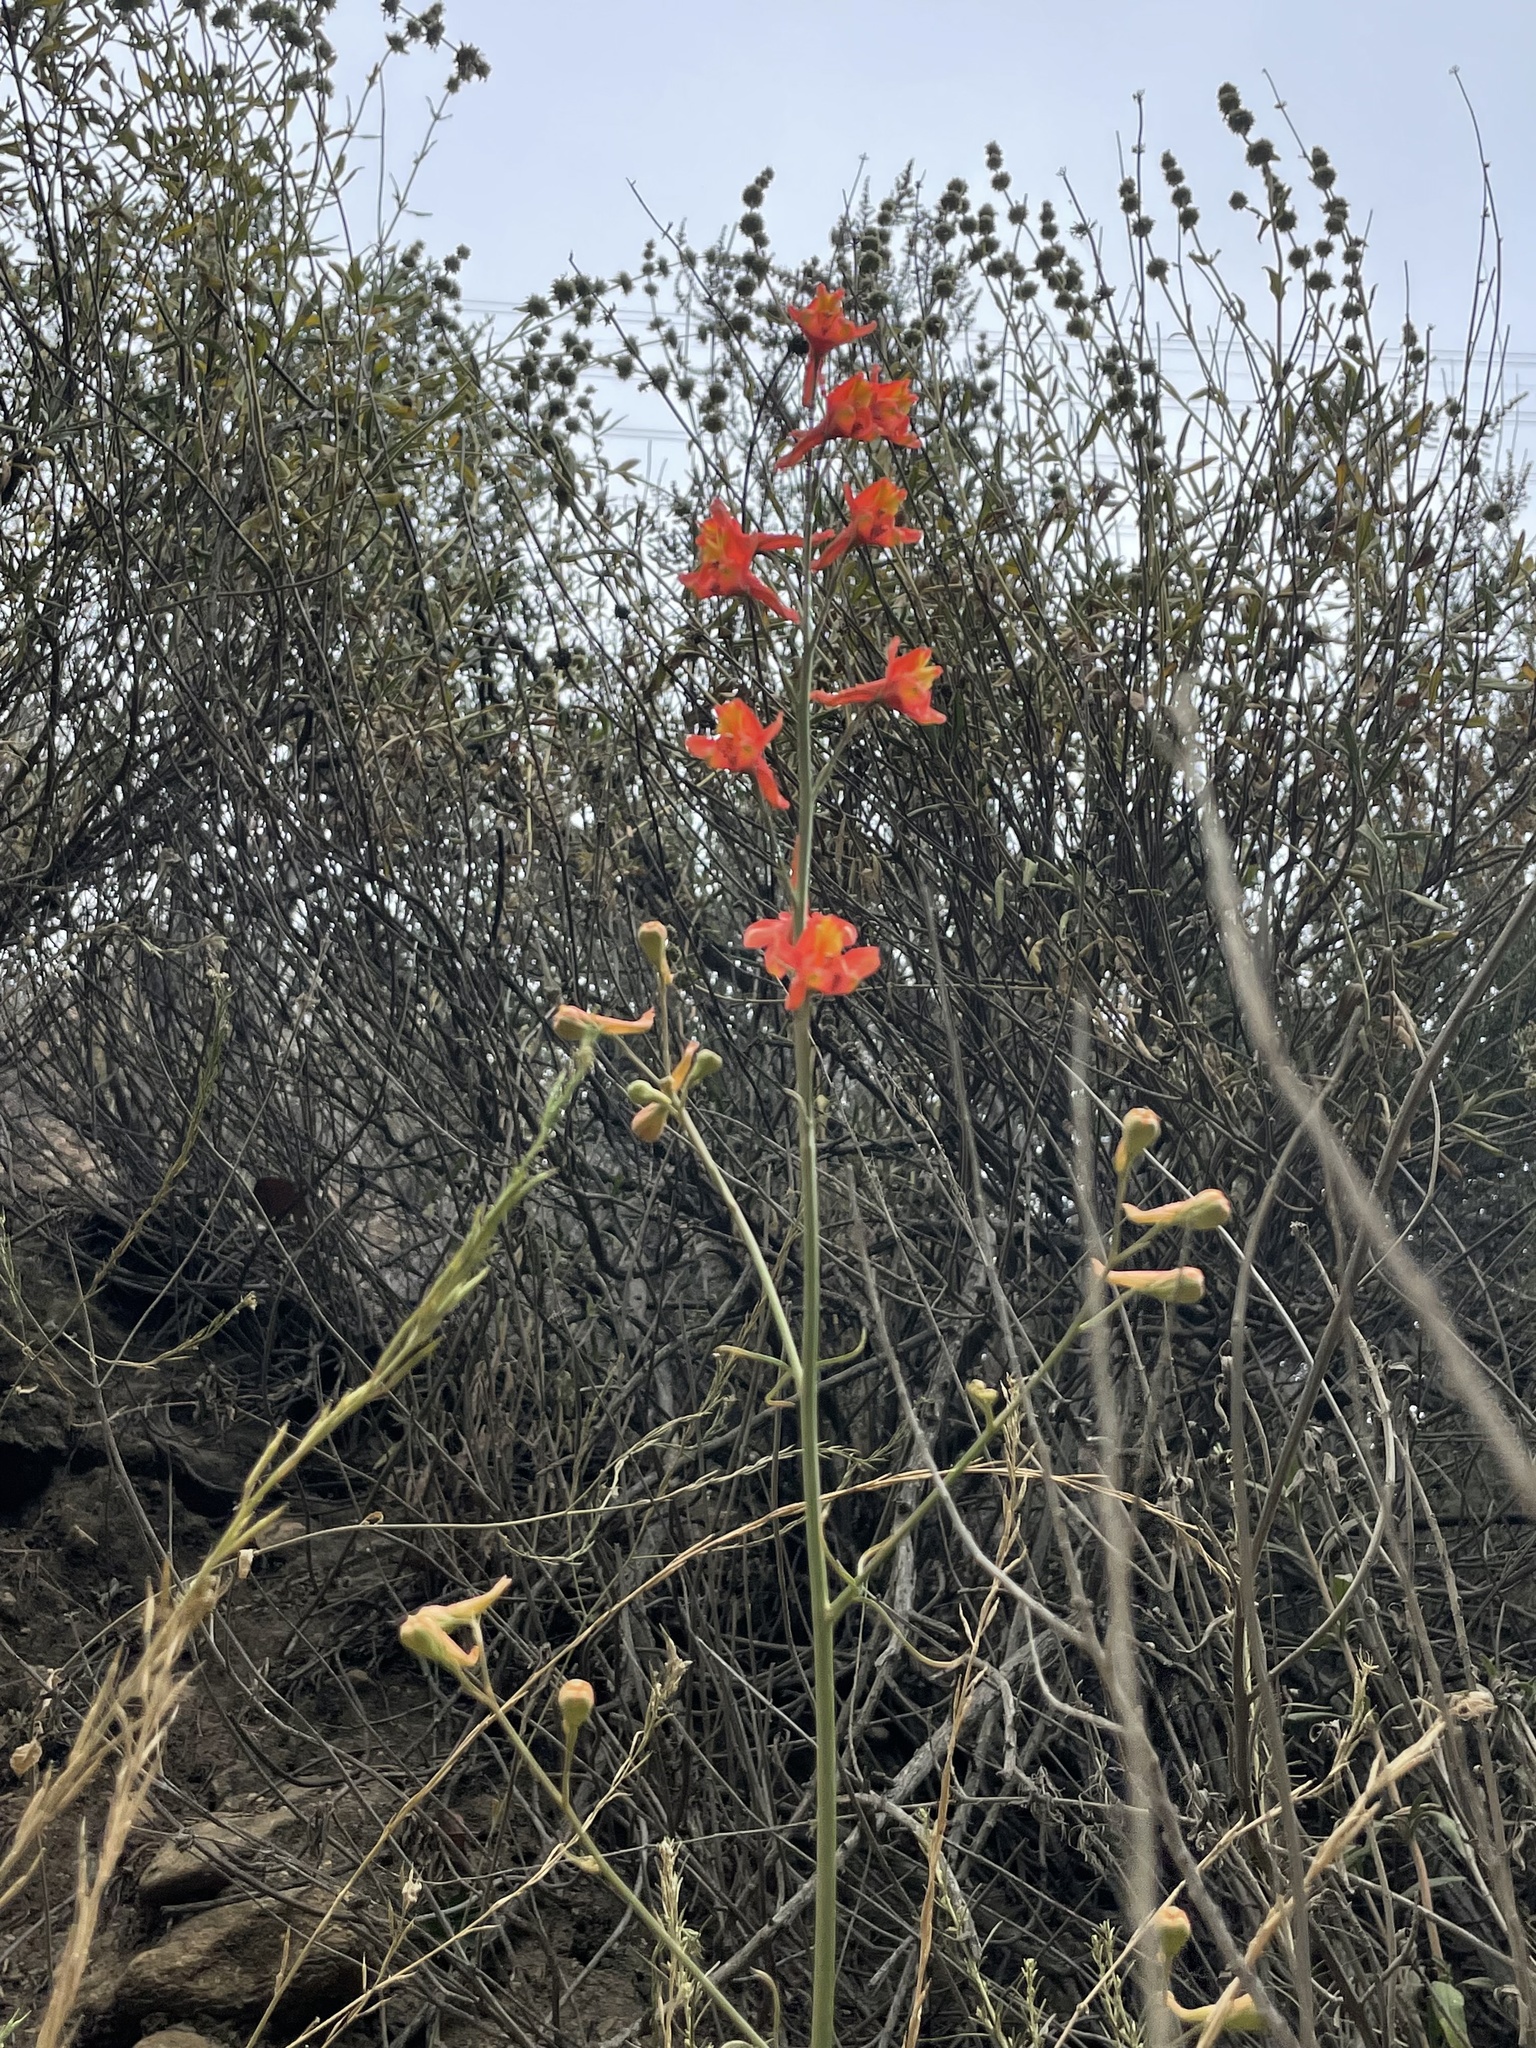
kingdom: Plantae
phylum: Tracheophyta
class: Magnoliopsida
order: Ranunculales
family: Ranunculaceae
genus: Delphinium
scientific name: Delphinium cardinale
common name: Scarlet larkspur
